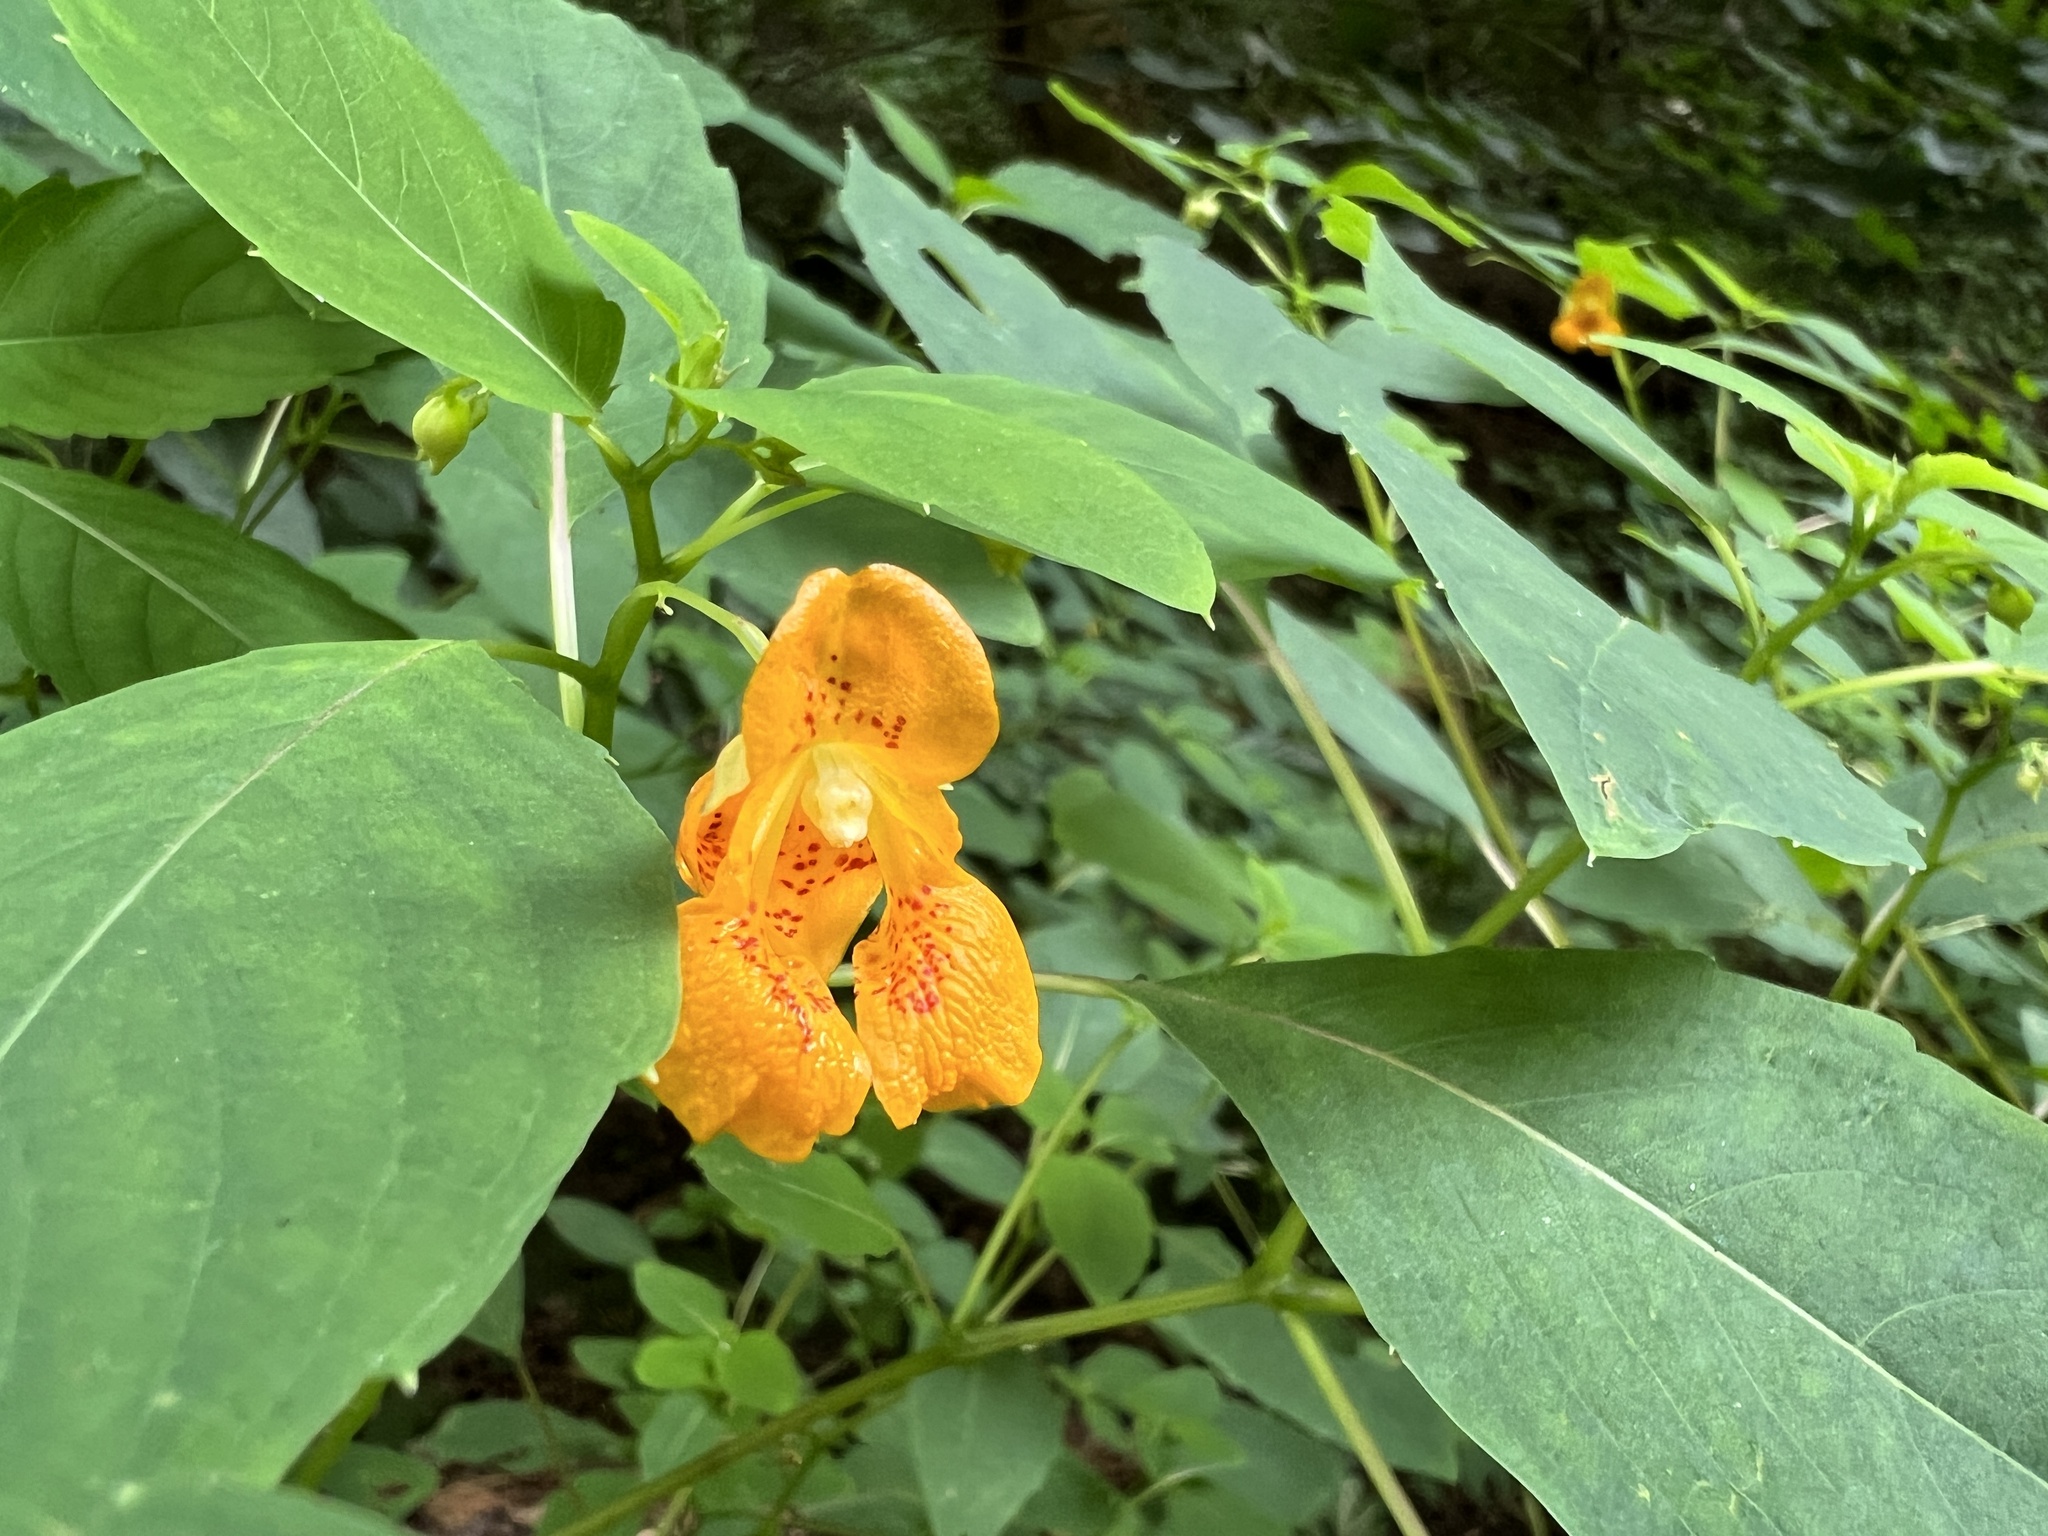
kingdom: Plantae
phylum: Tracheophyta
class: Magnoliopsida
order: Ericales
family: Balsaminaceae
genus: Impatiens
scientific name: Impatiens capensis
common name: Orange balsam
